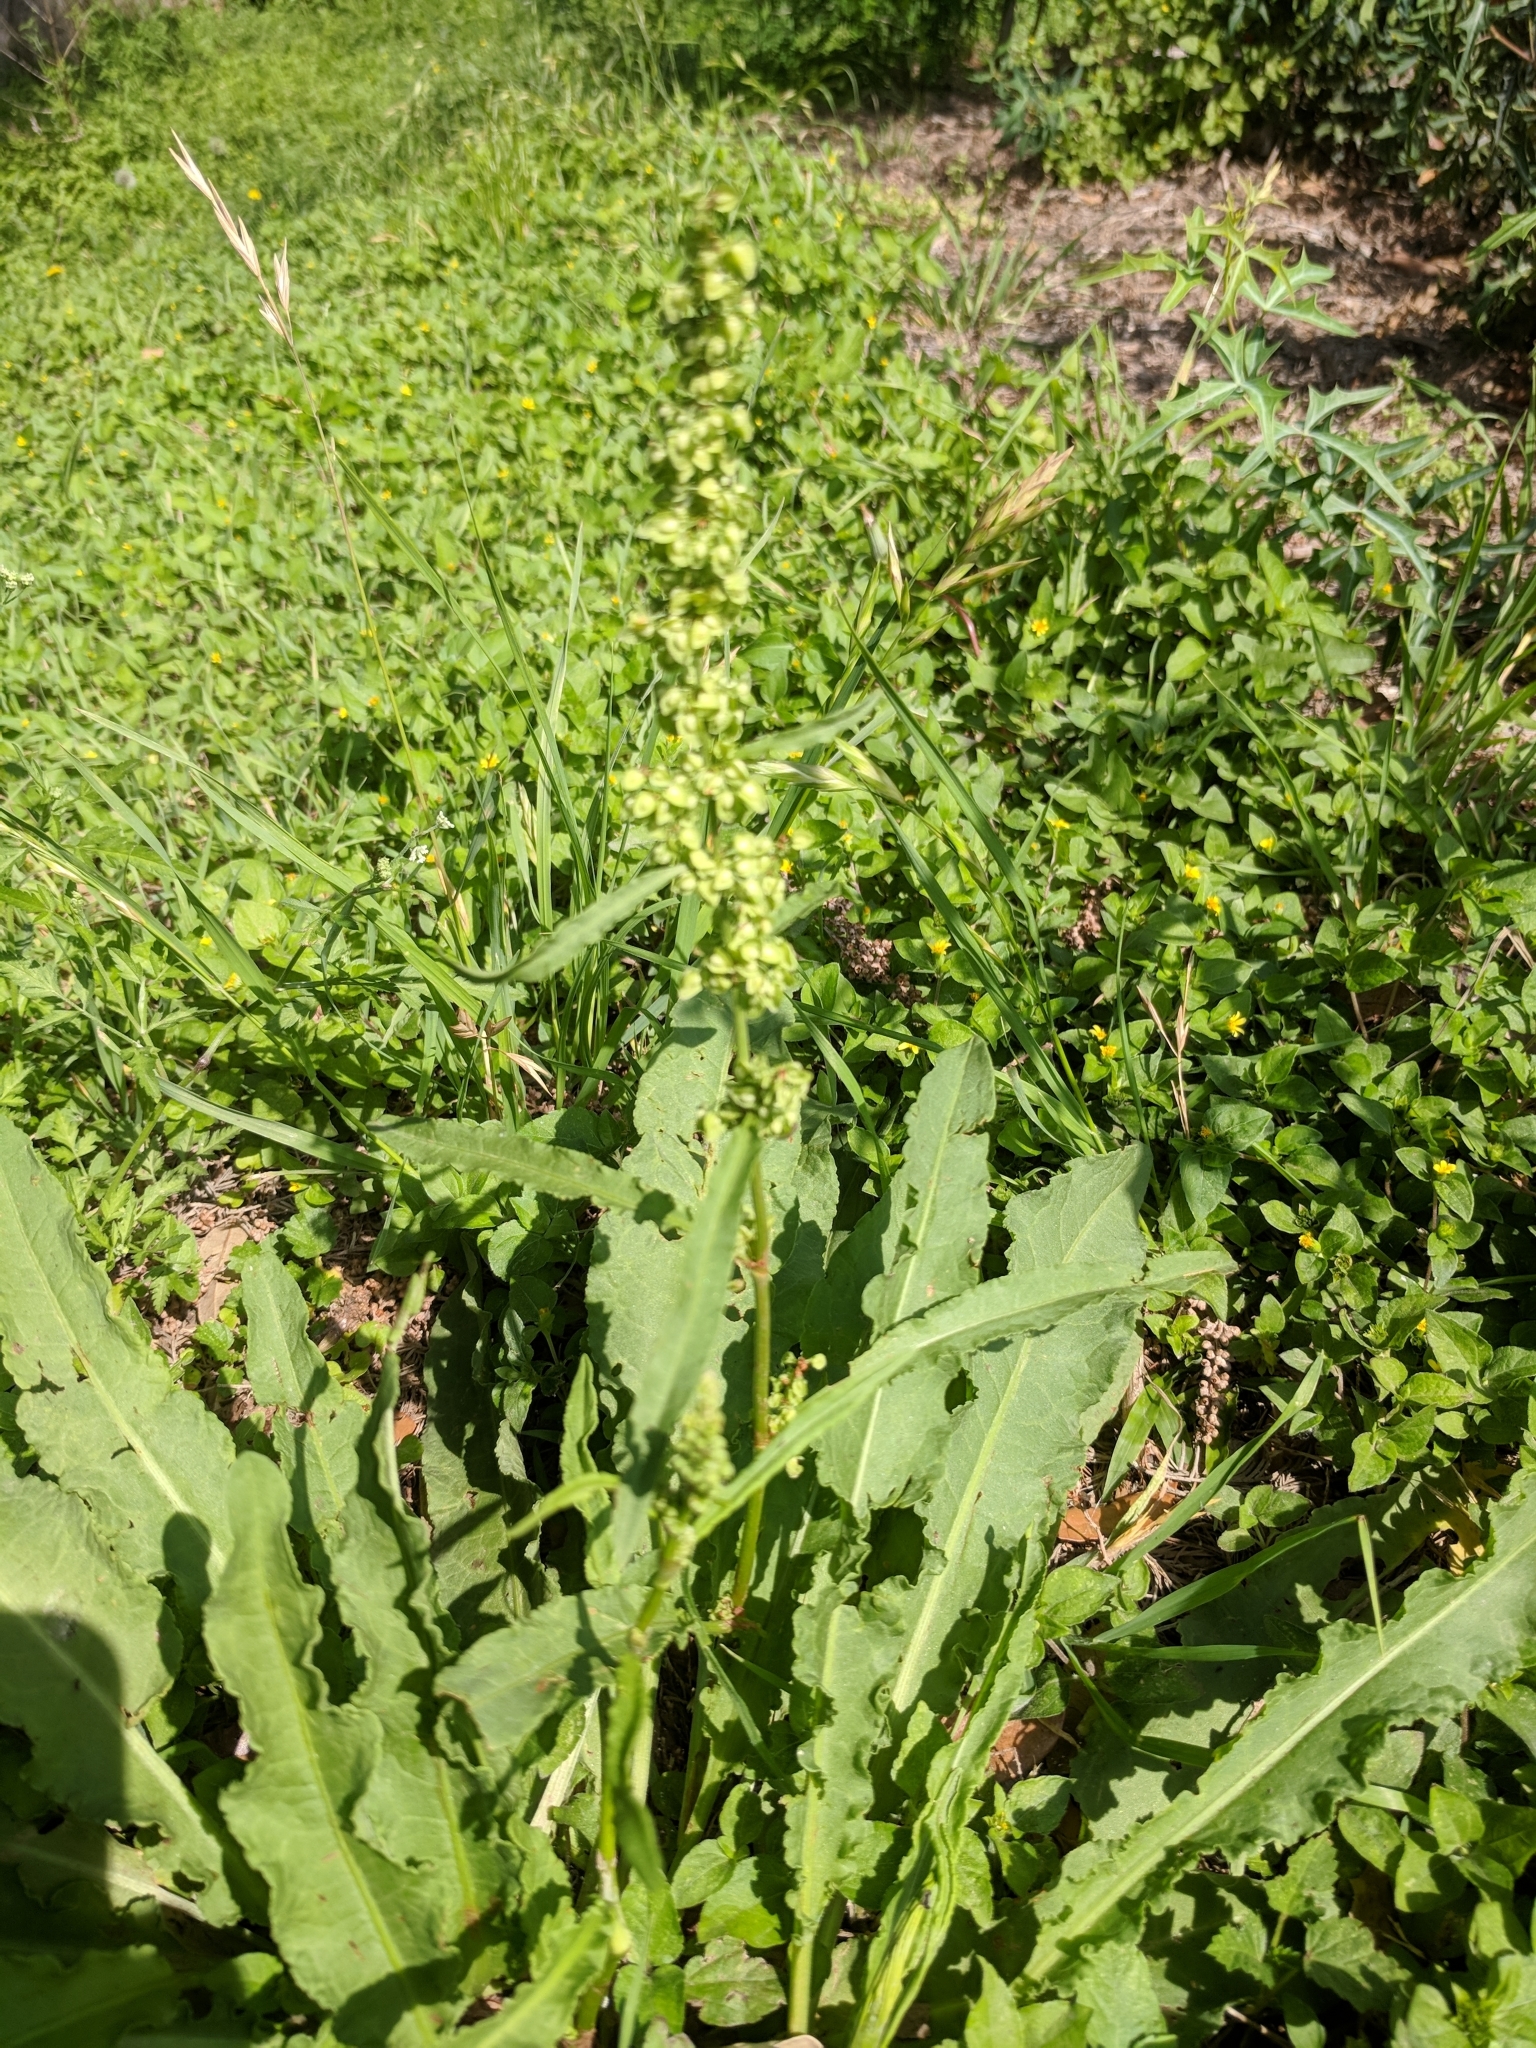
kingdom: Plantae
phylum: Tracheophyta
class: Magnoliopsida
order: Caryophyllales
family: Polygonaceae
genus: Rumex
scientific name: Rumex crispus
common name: Curled dock
